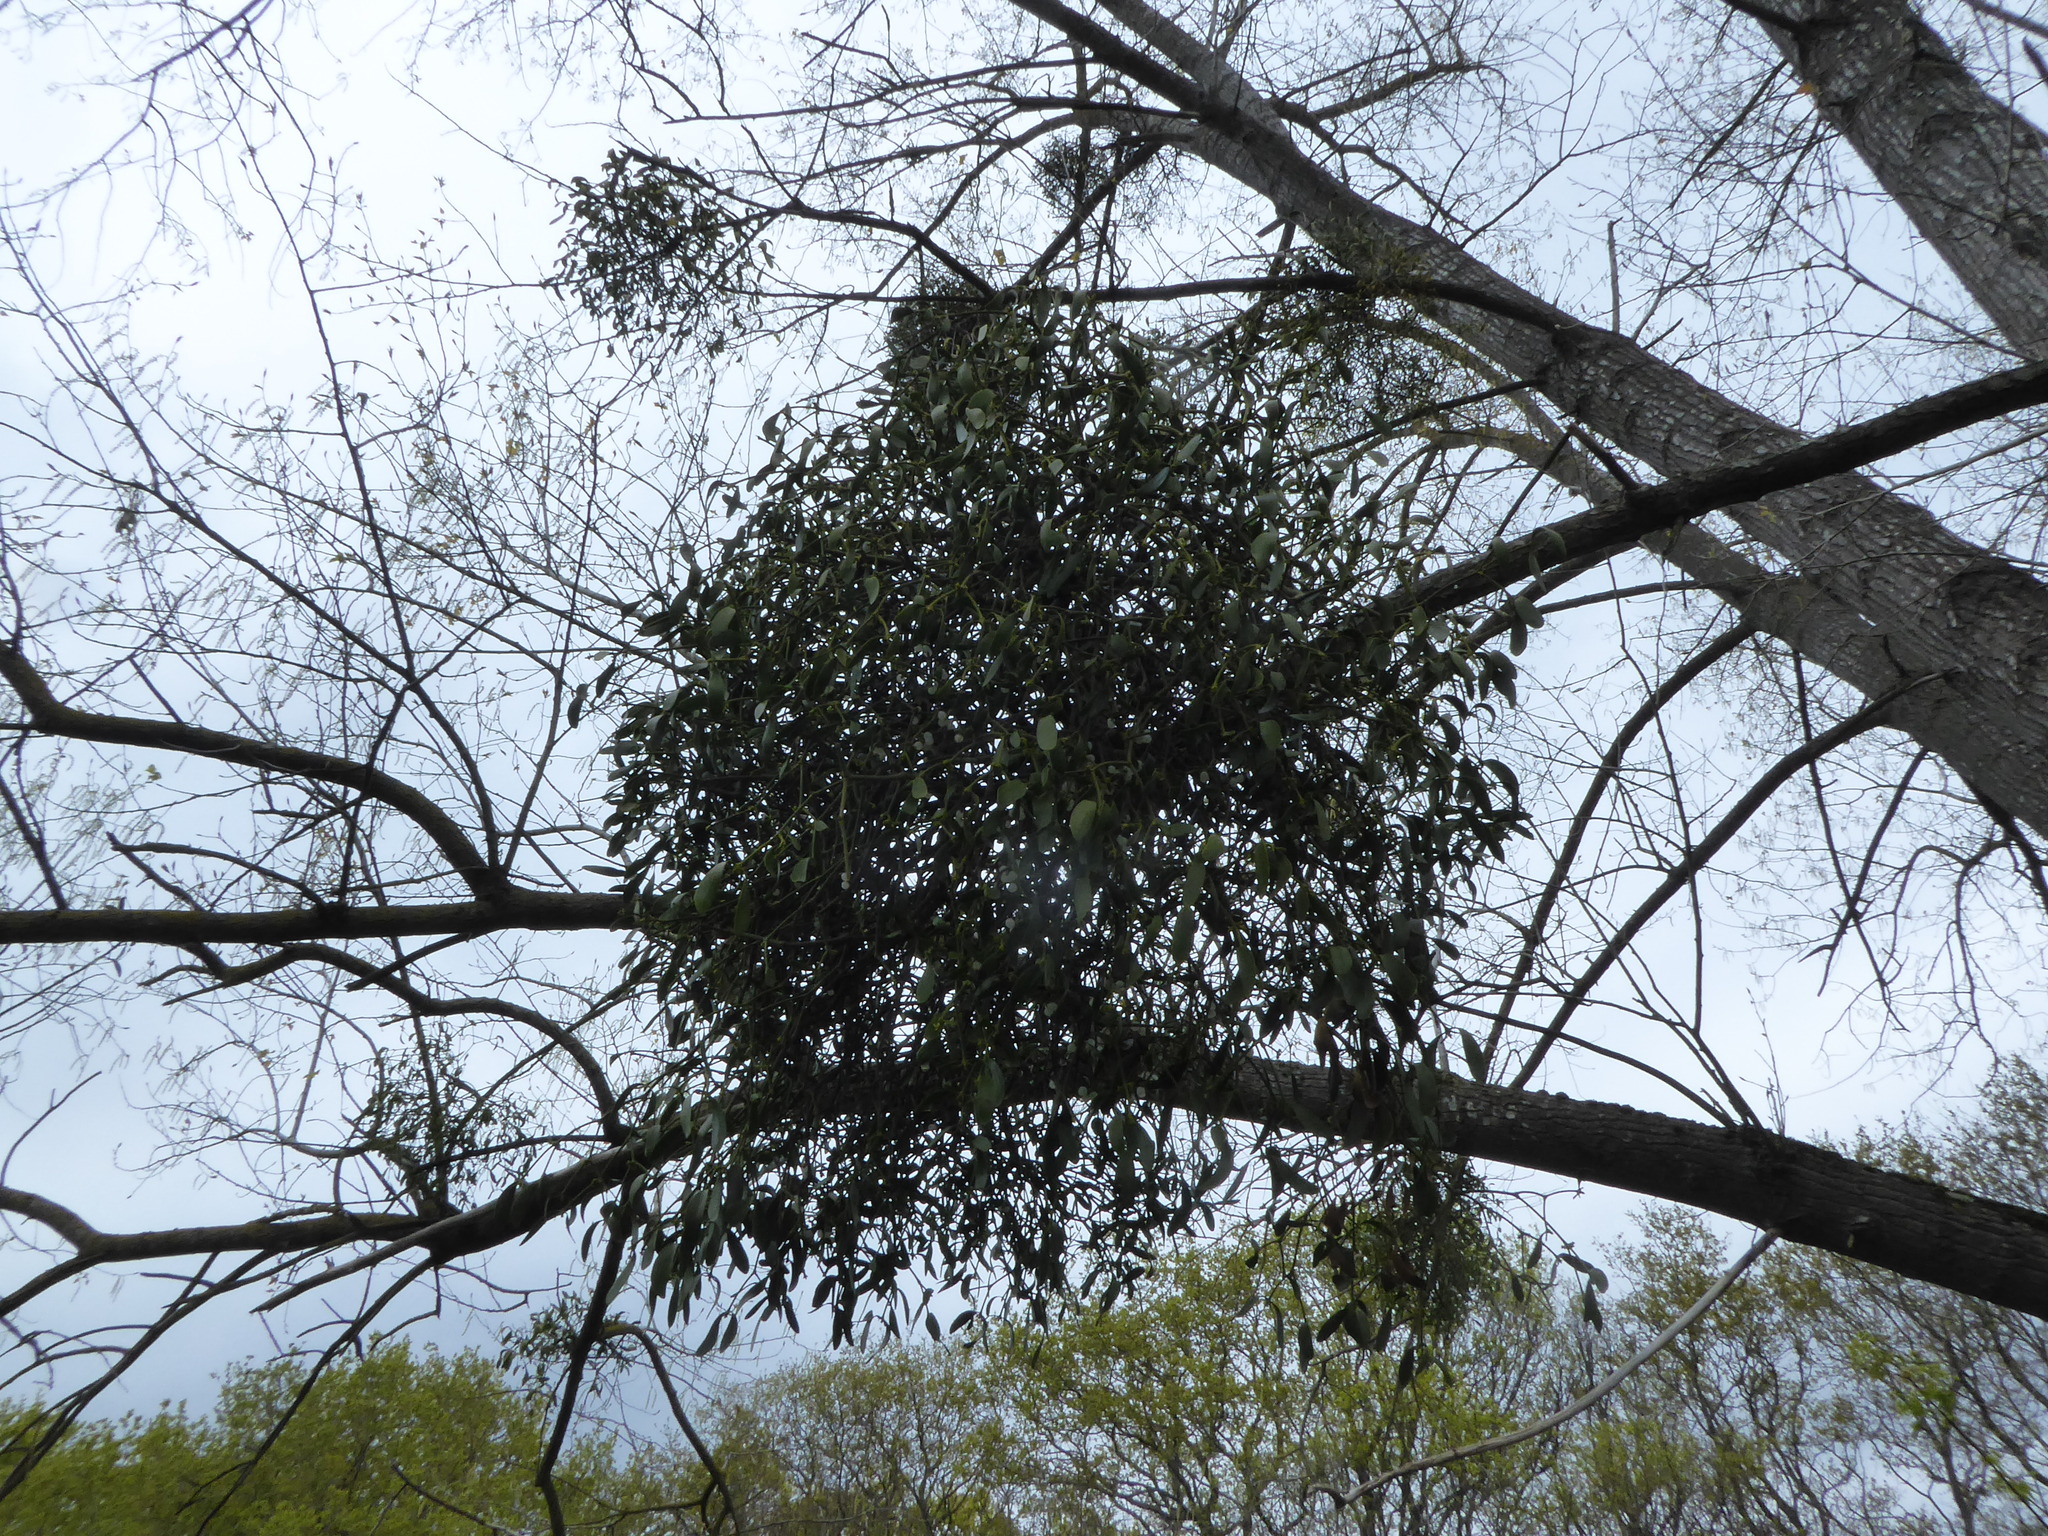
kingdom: Plantae
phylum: Tracheophyta
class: Magnoliopsida
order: Santalales
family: Viscaceae
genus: Viscum
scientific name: Viscum album
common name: Mistletoe
